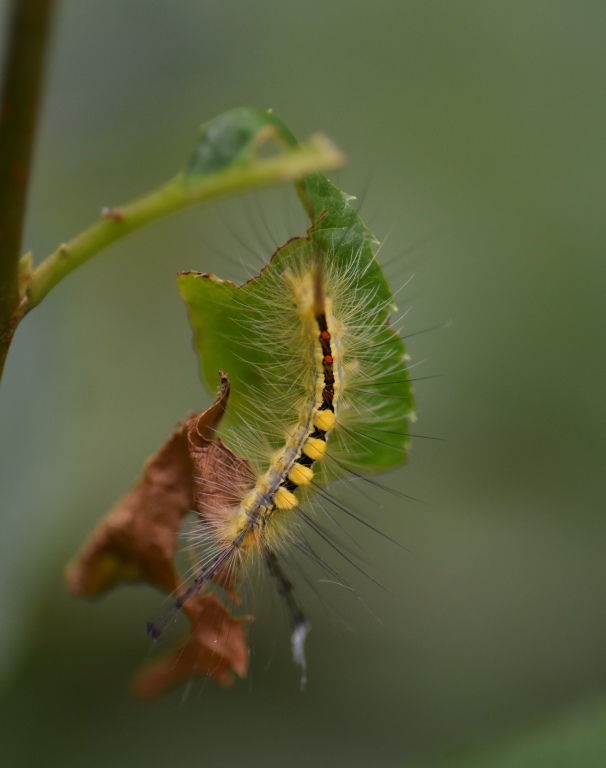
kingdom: Animalia
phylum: Arthropoda
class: Insecta
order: Lepidoptera
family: Erebidae
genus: Orgyia
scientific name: Orgyia leucostigma
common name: White-marked tussock moth
